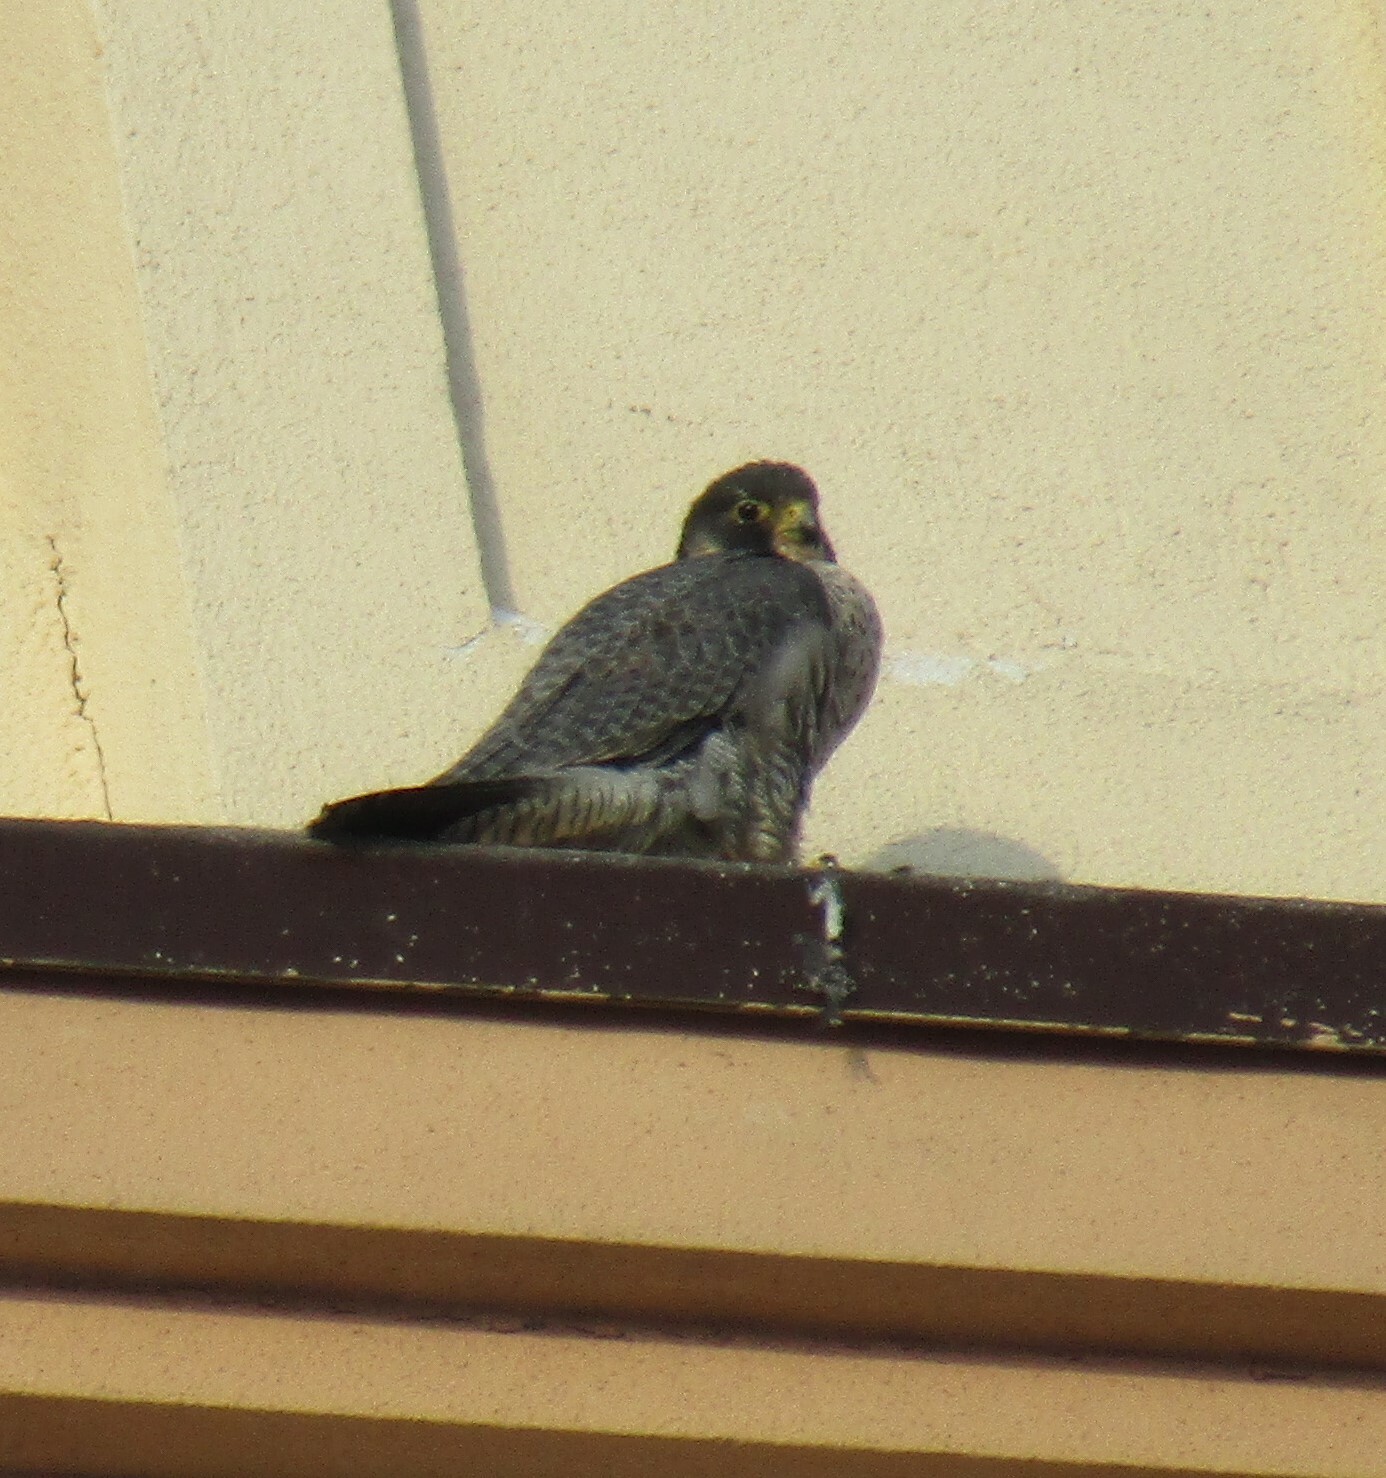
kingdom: Animalia
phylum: Chordata
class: Aves
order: Falconiformes
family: Falconidae
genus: Falco
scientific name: Falco peregrinus
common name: Peregrine falcon
